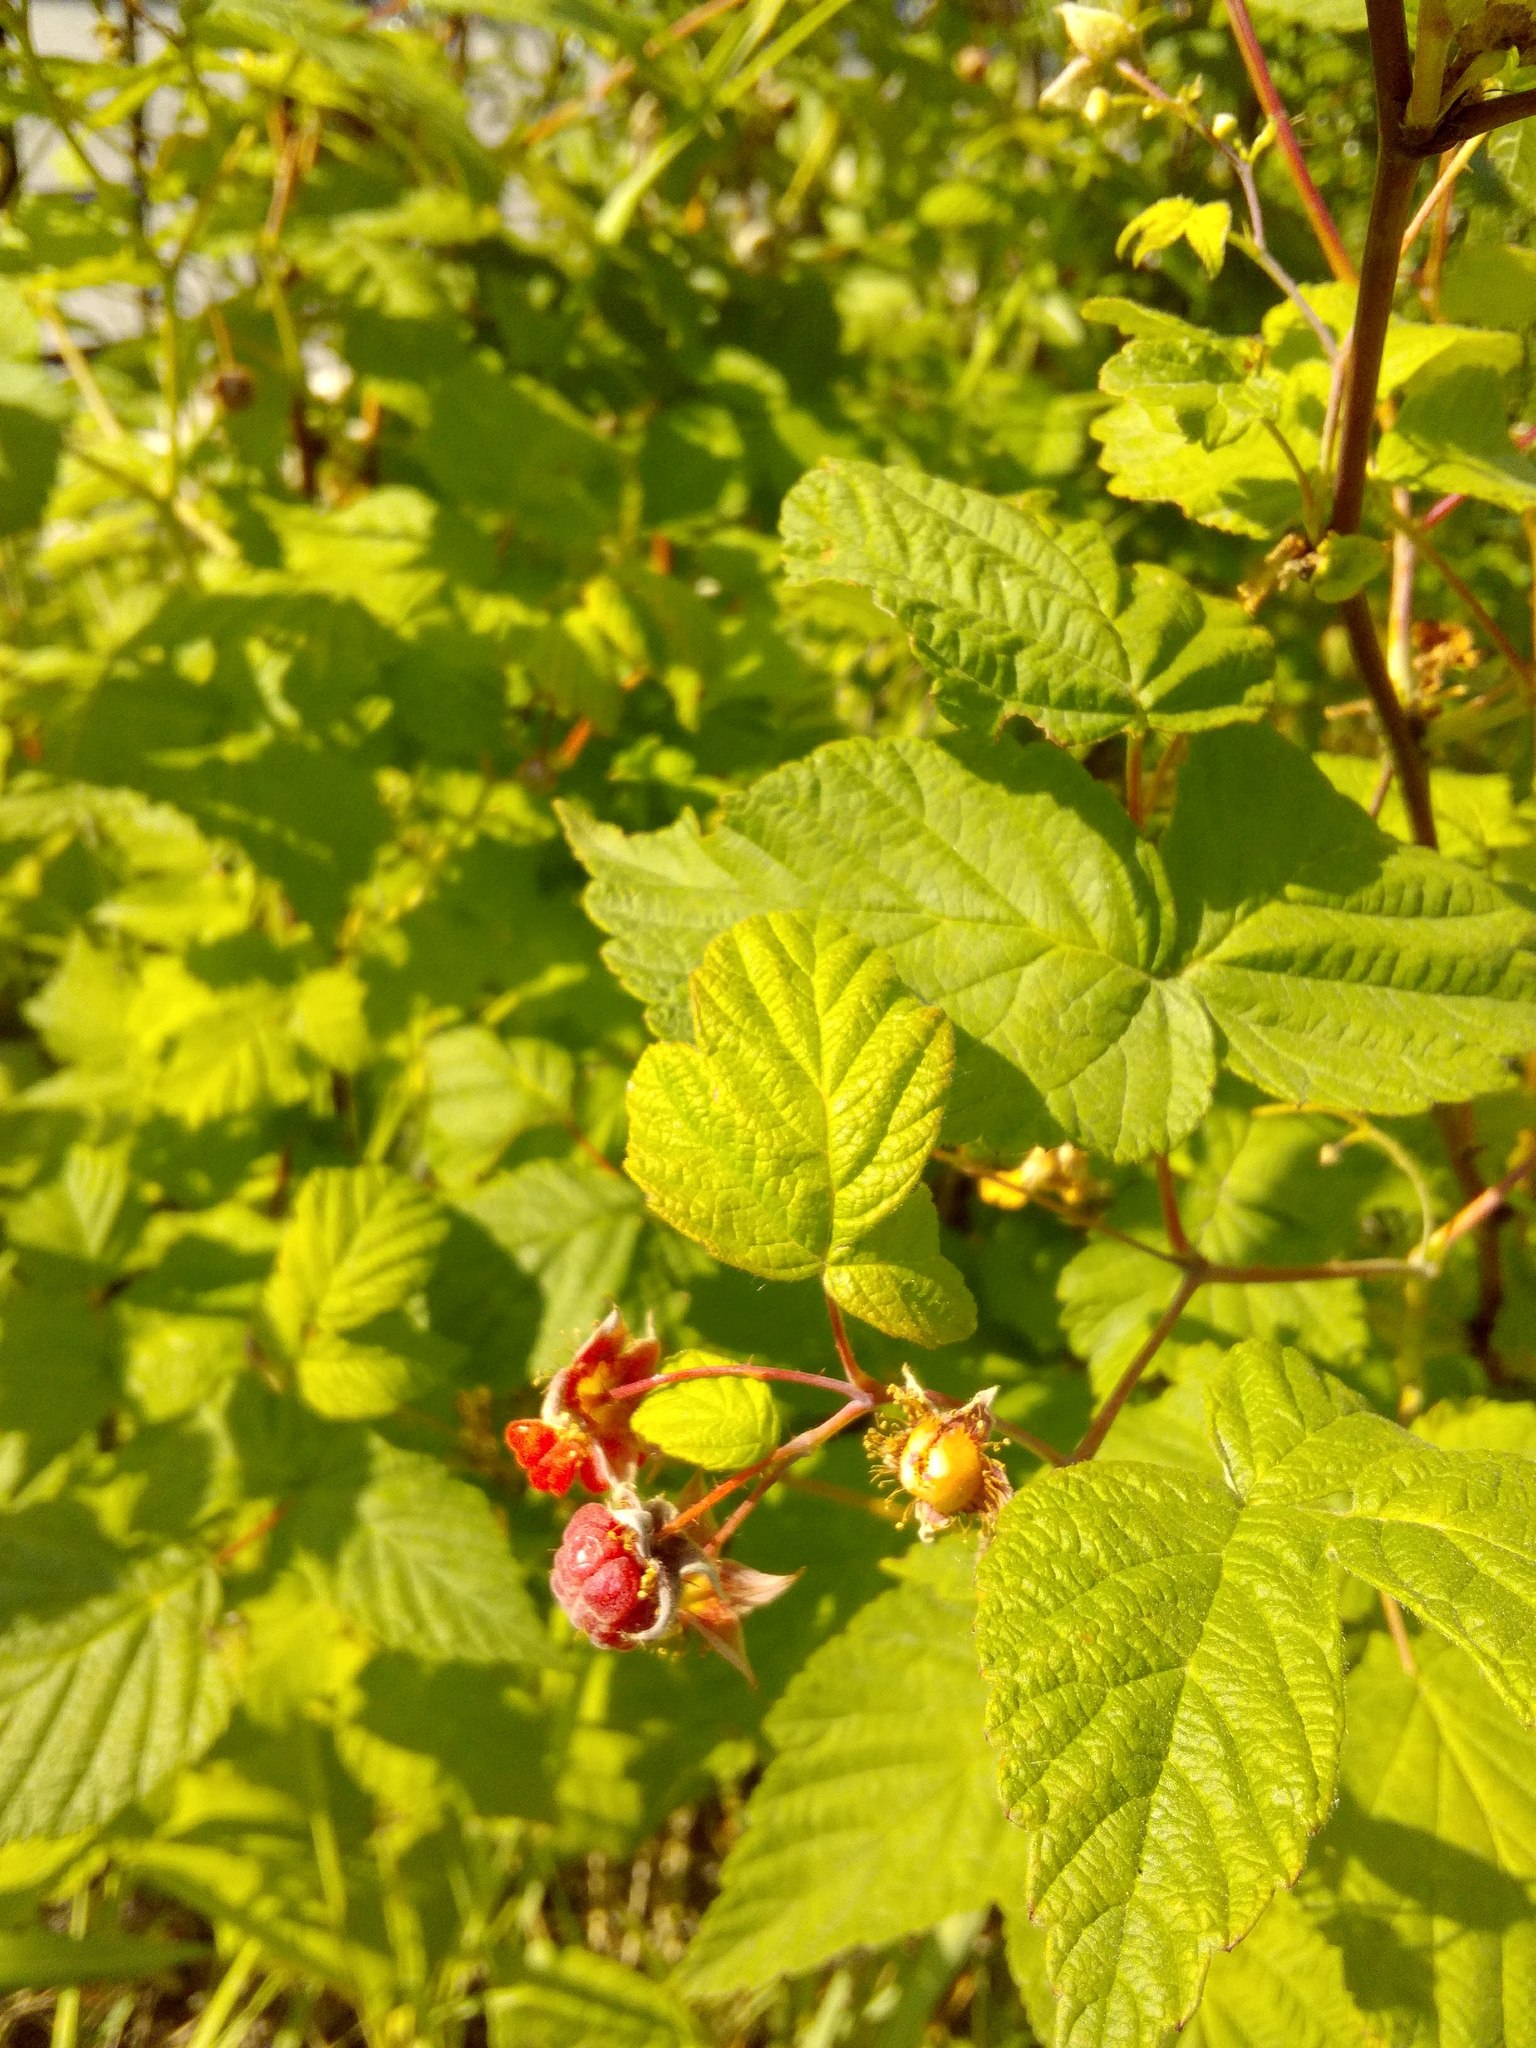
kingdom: Plantae
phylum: Tracheophyta
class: Magnoliopsida
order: Rosales
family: Rosaceae
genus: Rubus
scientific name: Rubus idaeus
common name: Raspberry
